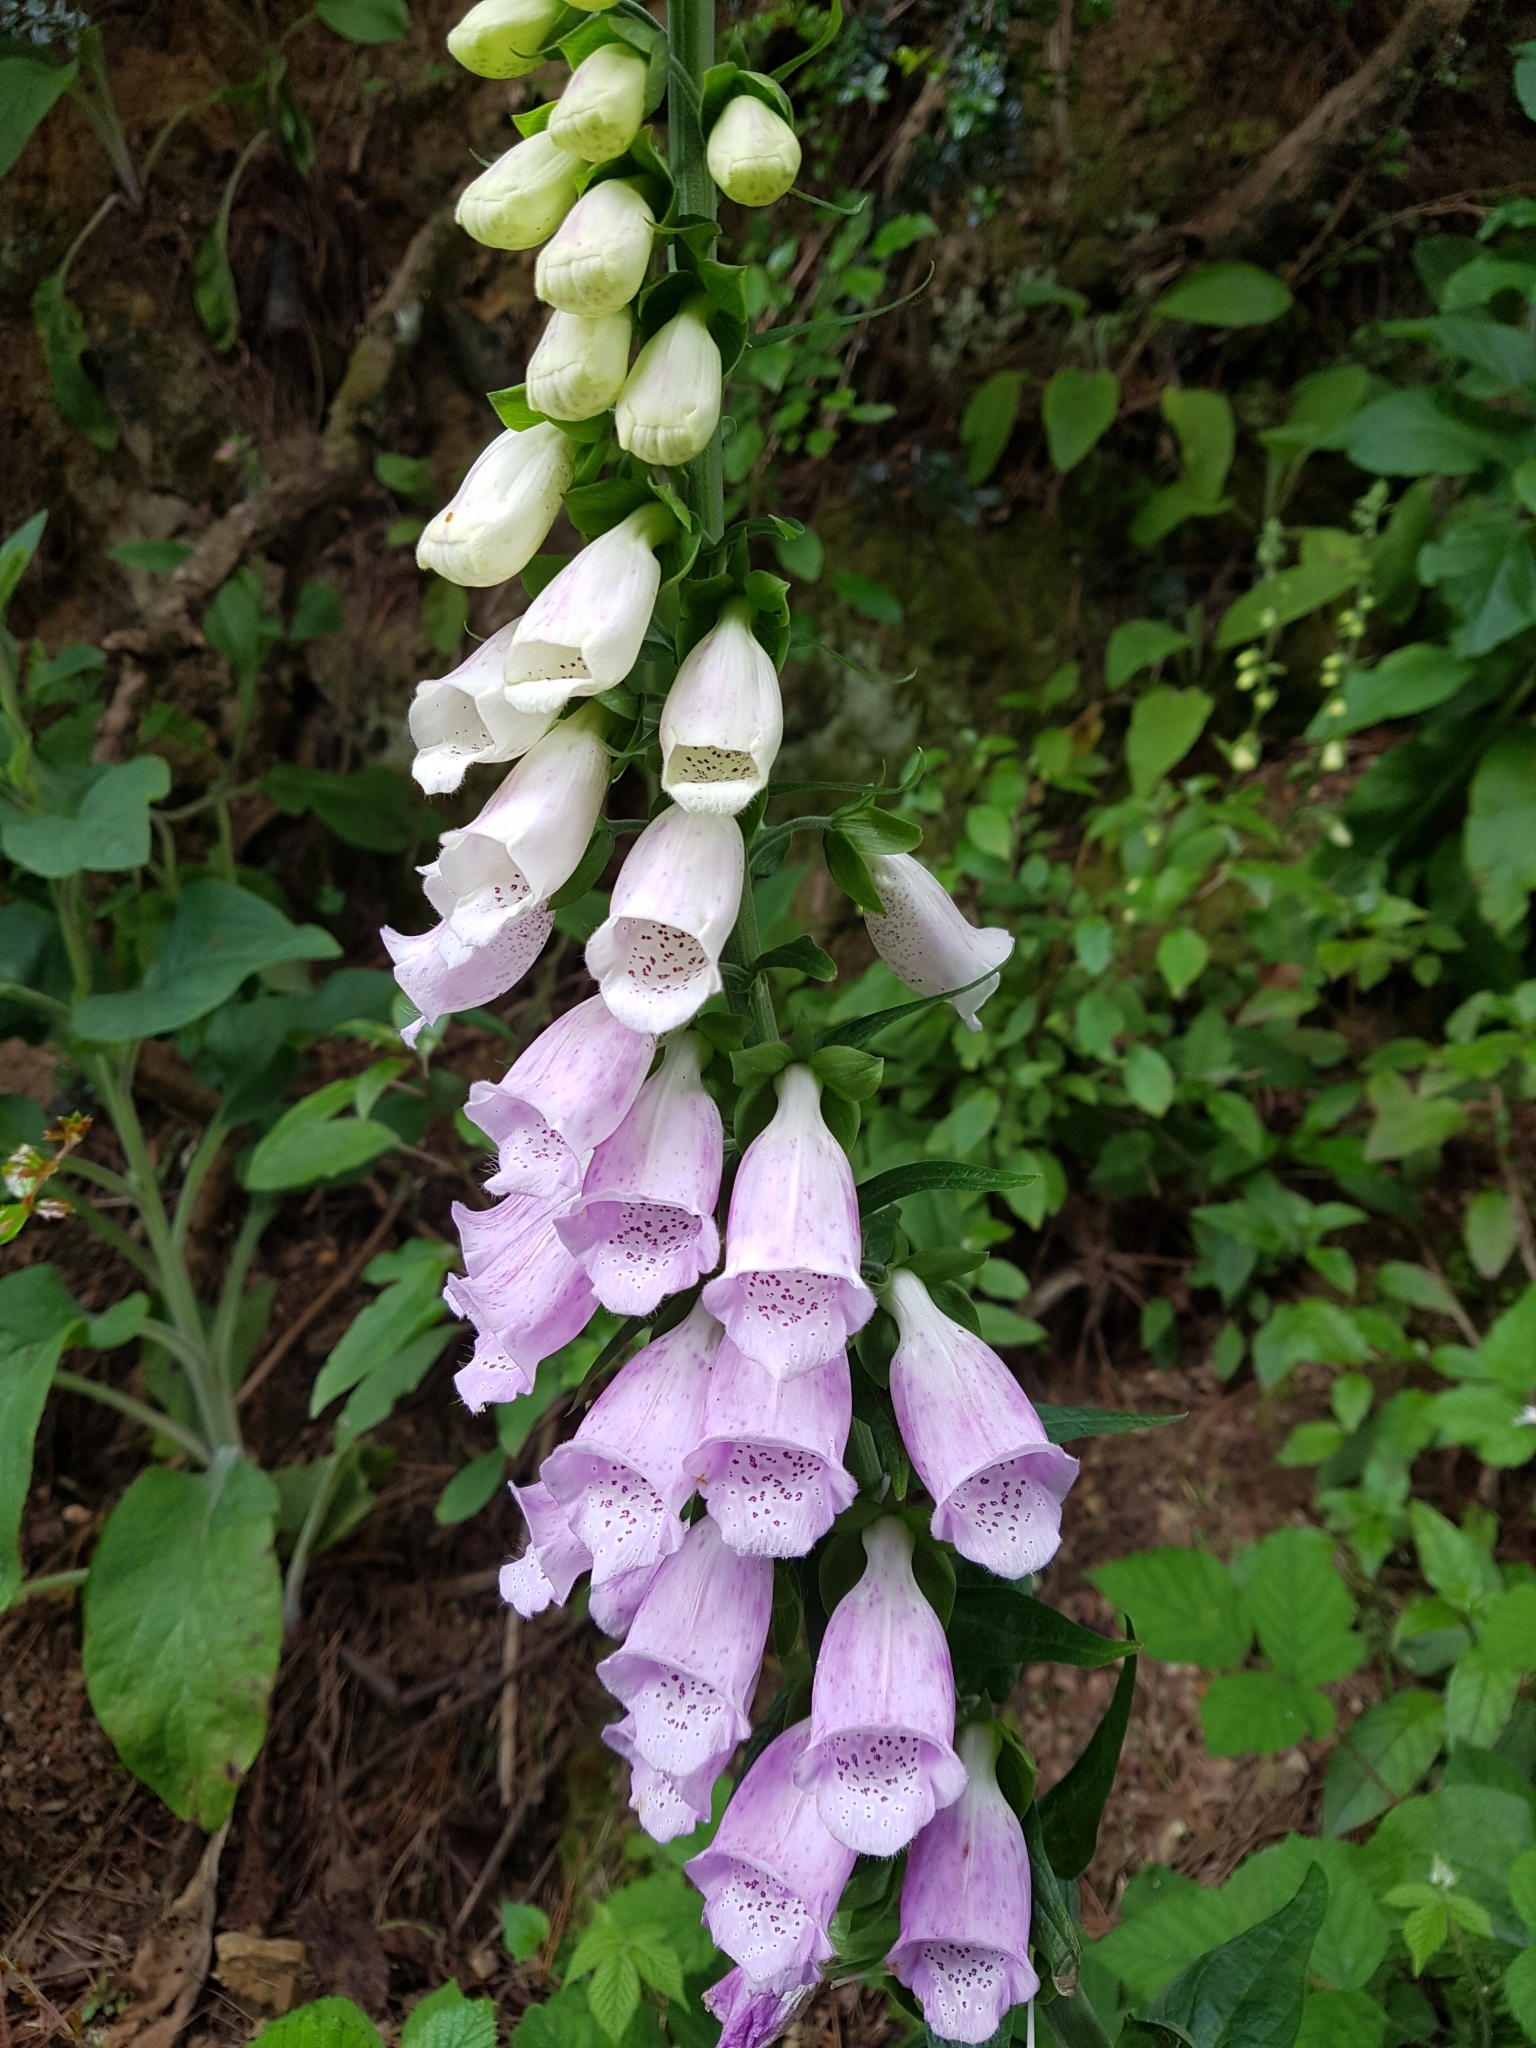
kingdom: Plantae
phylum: Tracheophyta
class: Magnoliopsida
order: Lamiales
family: Plantaginaceae
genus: Digitalis
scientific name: Digitalis purpurea
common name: Foxglove
